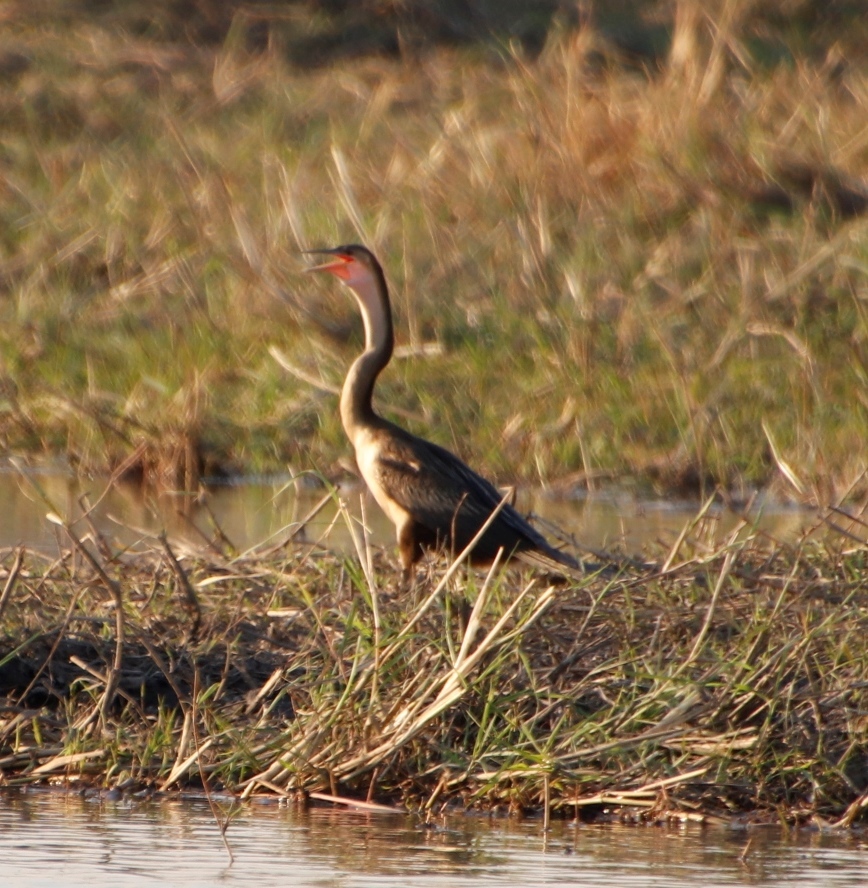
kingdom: Animalia
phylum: Chordata
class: Aves
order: Suliformes
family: Anhingidae
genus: Anhinga
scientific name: Anhinga rufa
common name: African darter
